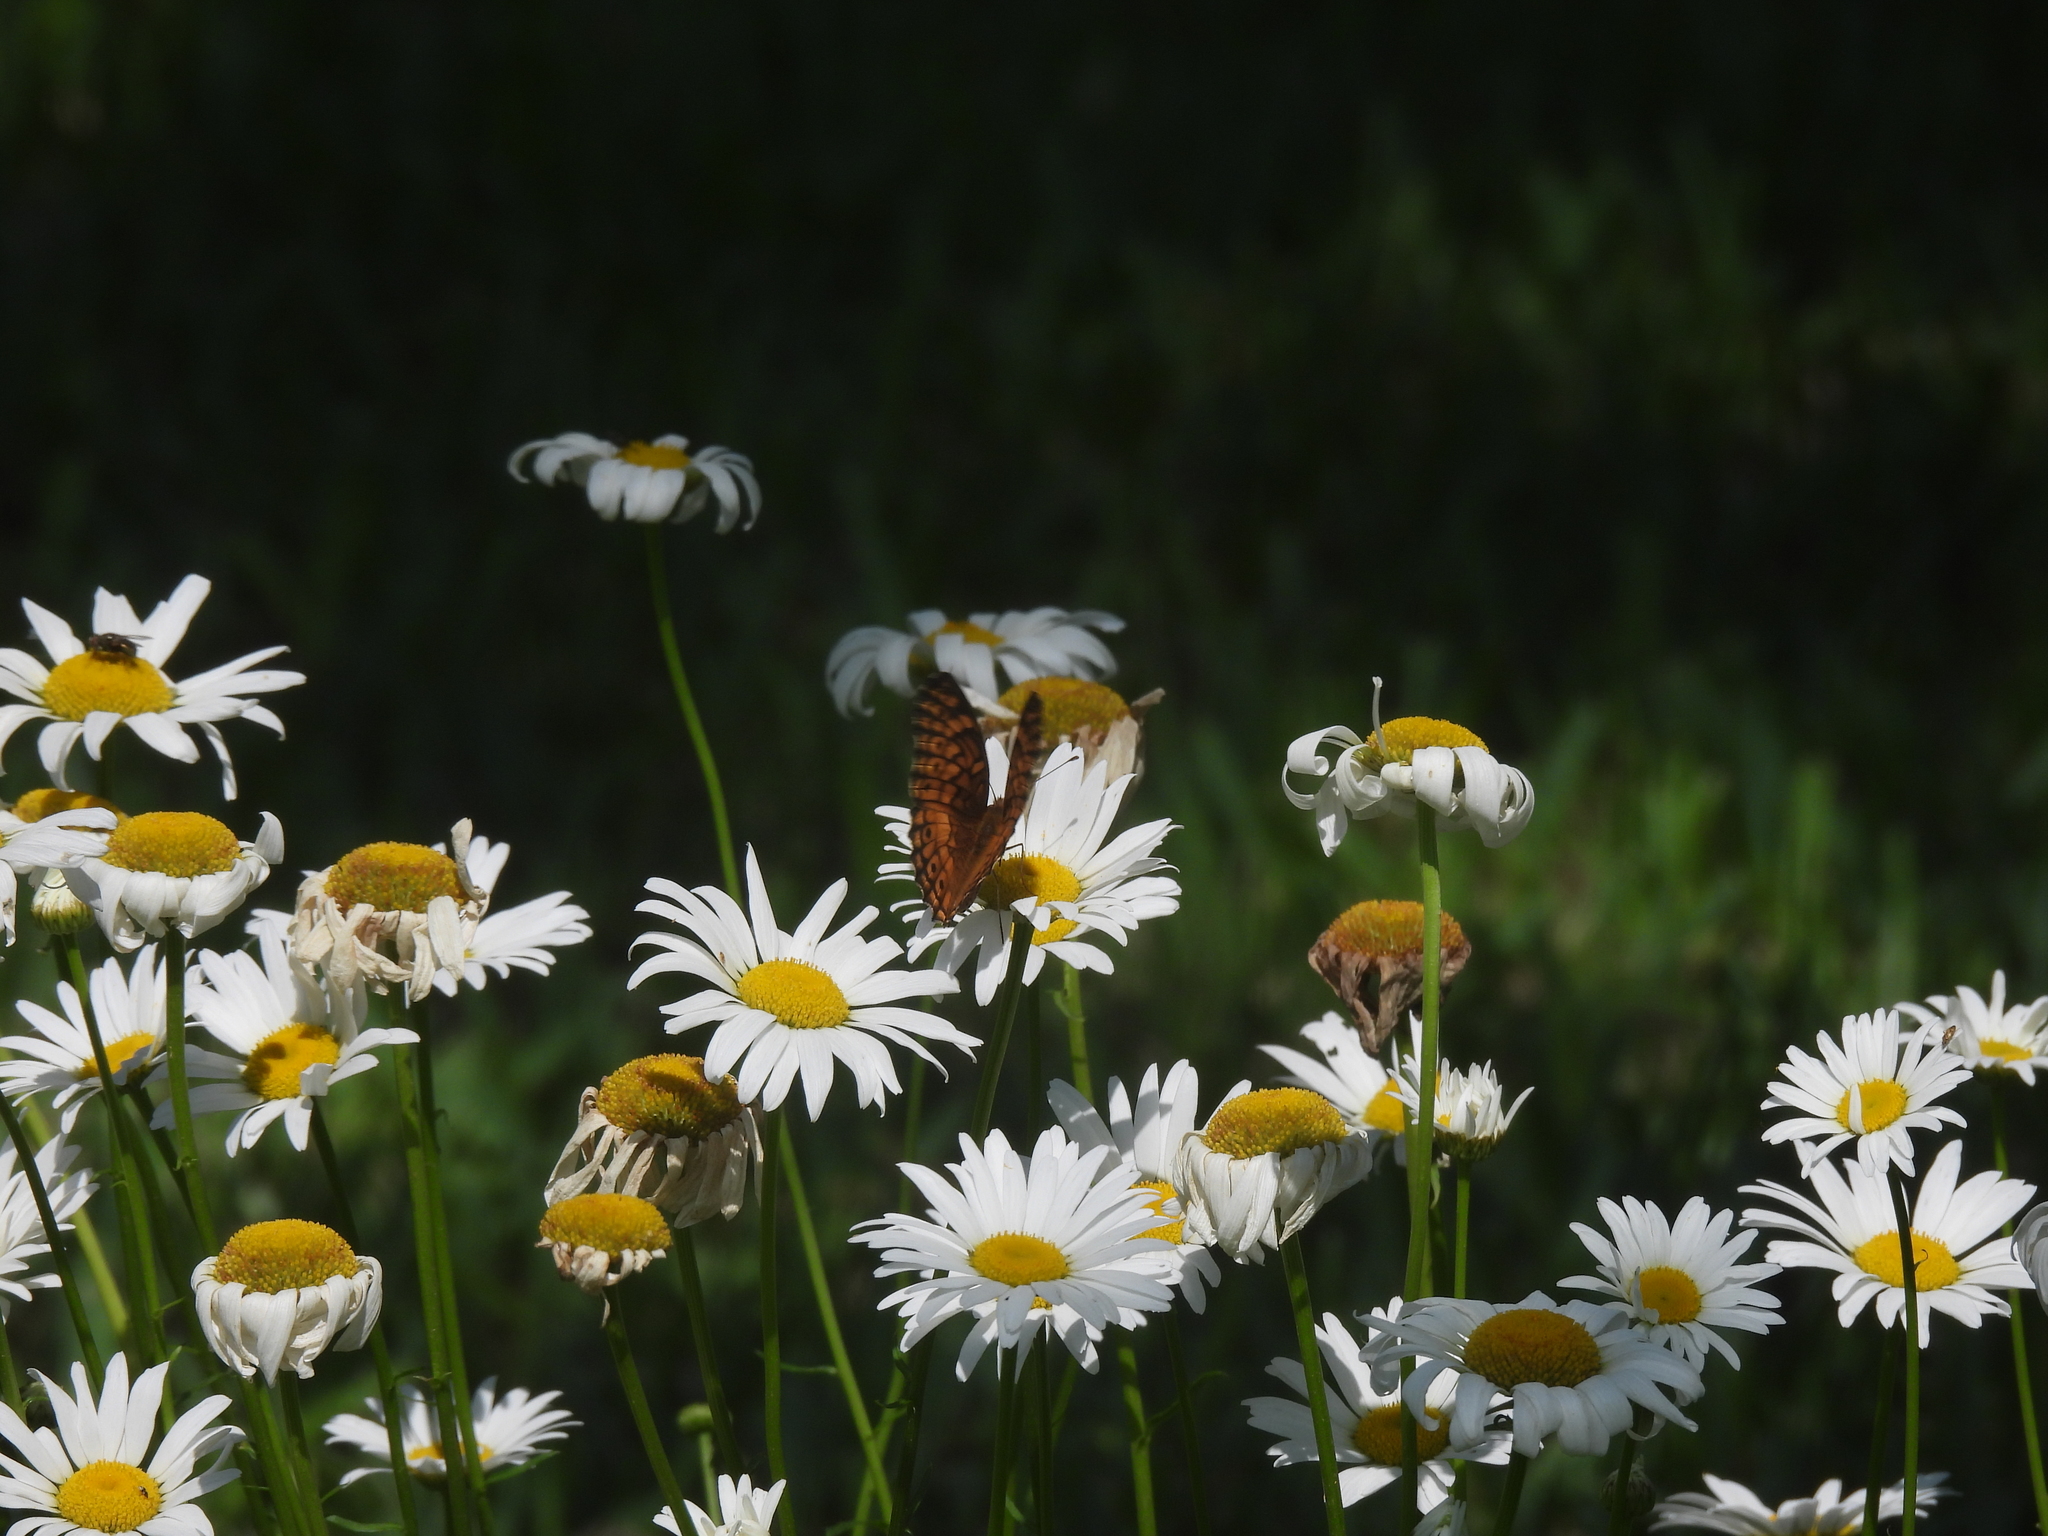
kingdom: Animalia
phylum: Arthropoda
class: Insecta
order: Lepidoptera
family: Nymphalidae
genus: Euptoieta
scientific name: Euptoieta claudia
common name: Variegated fritillary
